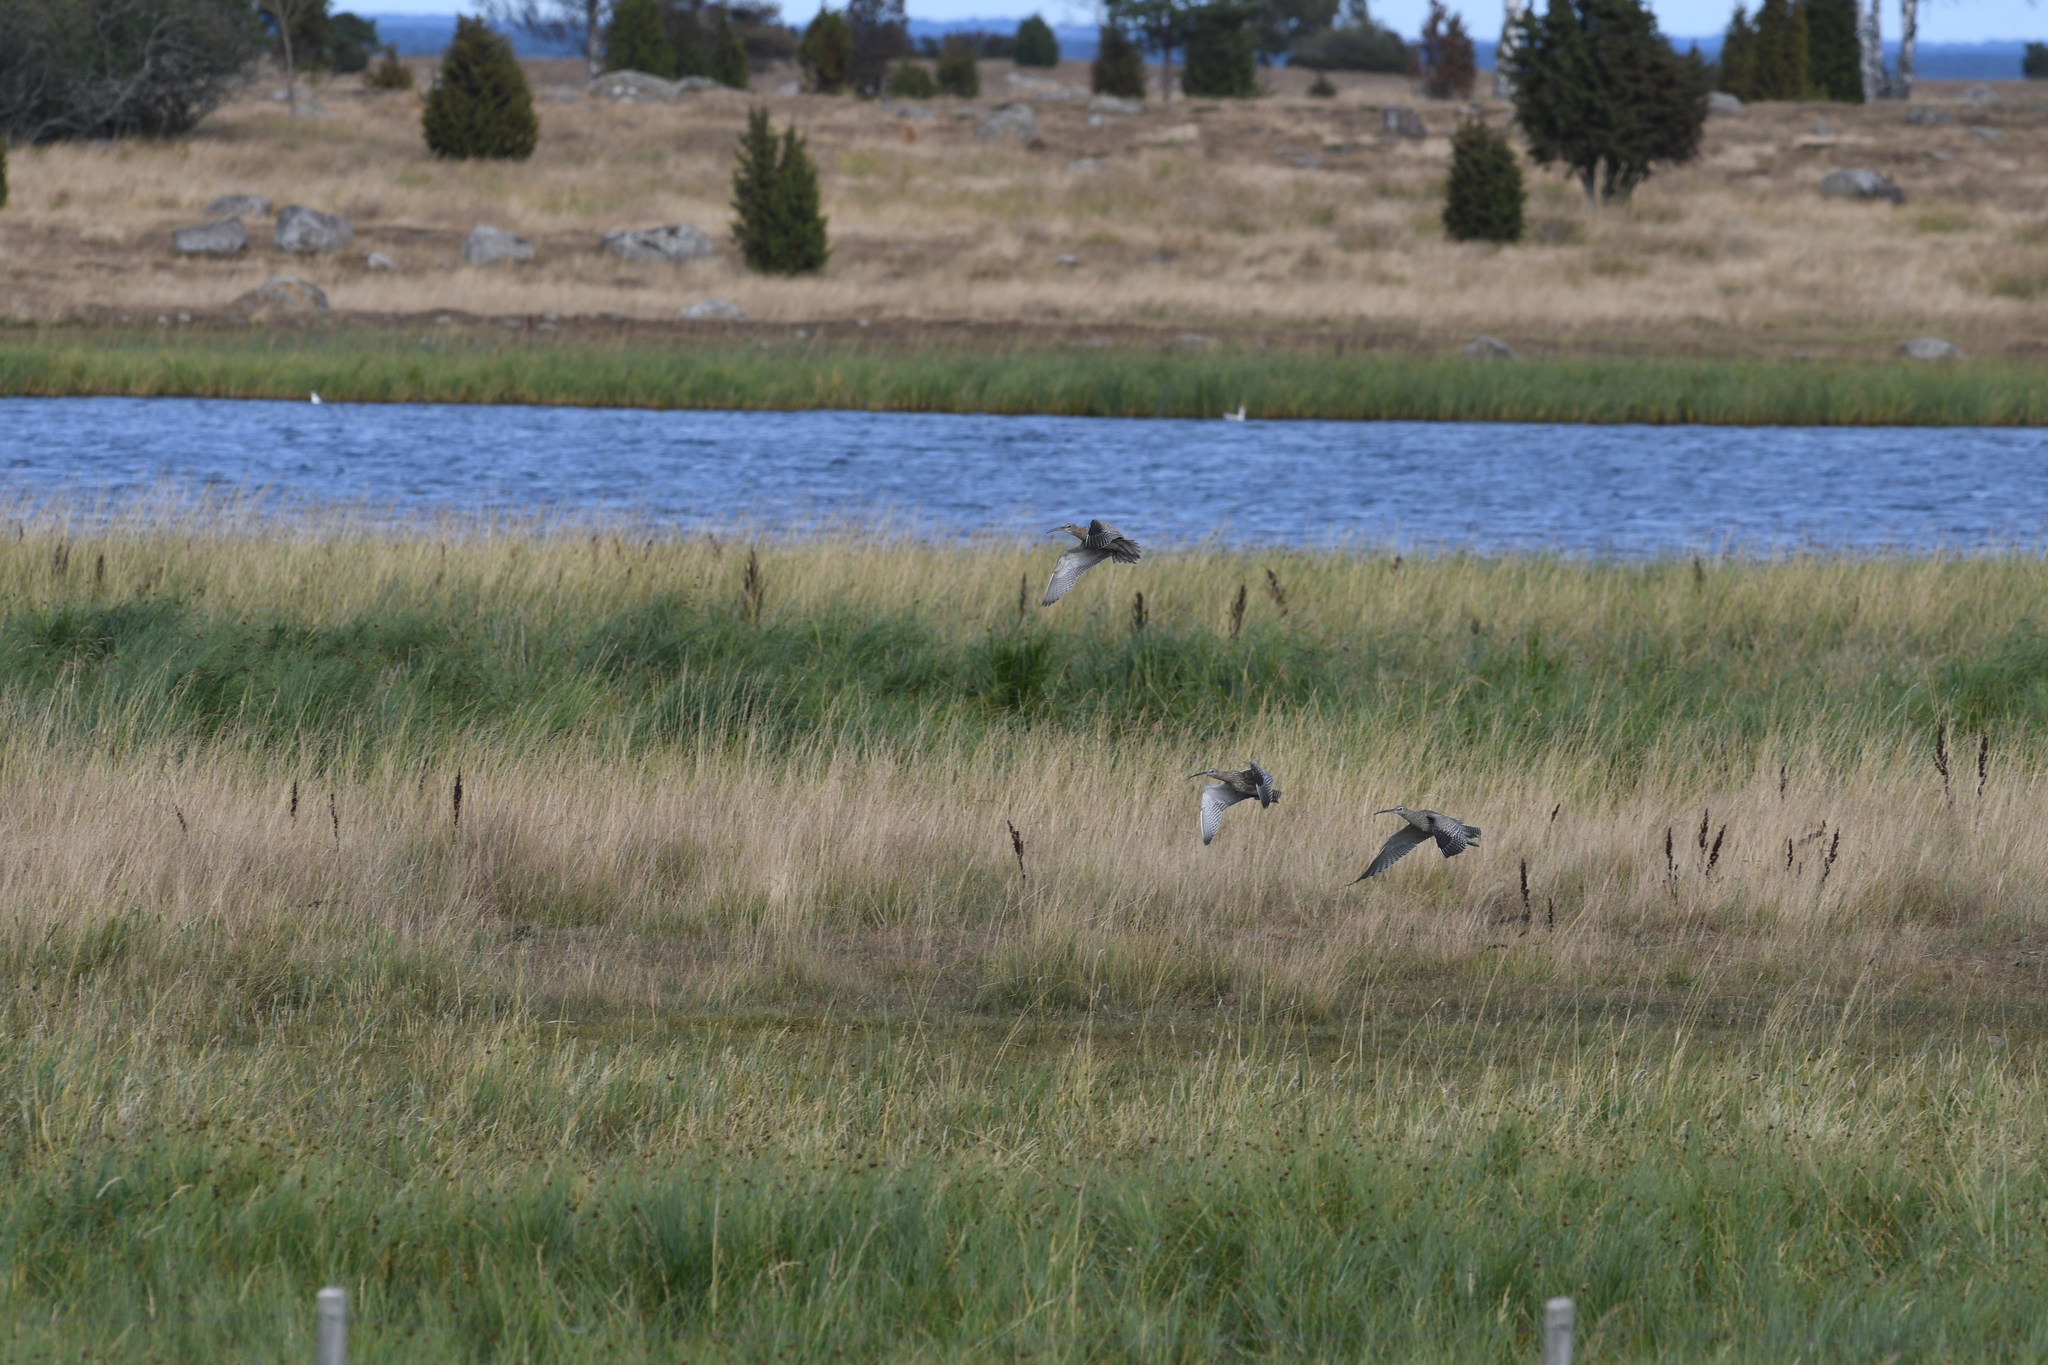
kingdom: Animalia
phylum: Chordata
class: Aves
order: Charadriiformes
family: Scolopacidae
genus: Numenius
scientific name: Numenius phaeopus
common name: Whimbrel
